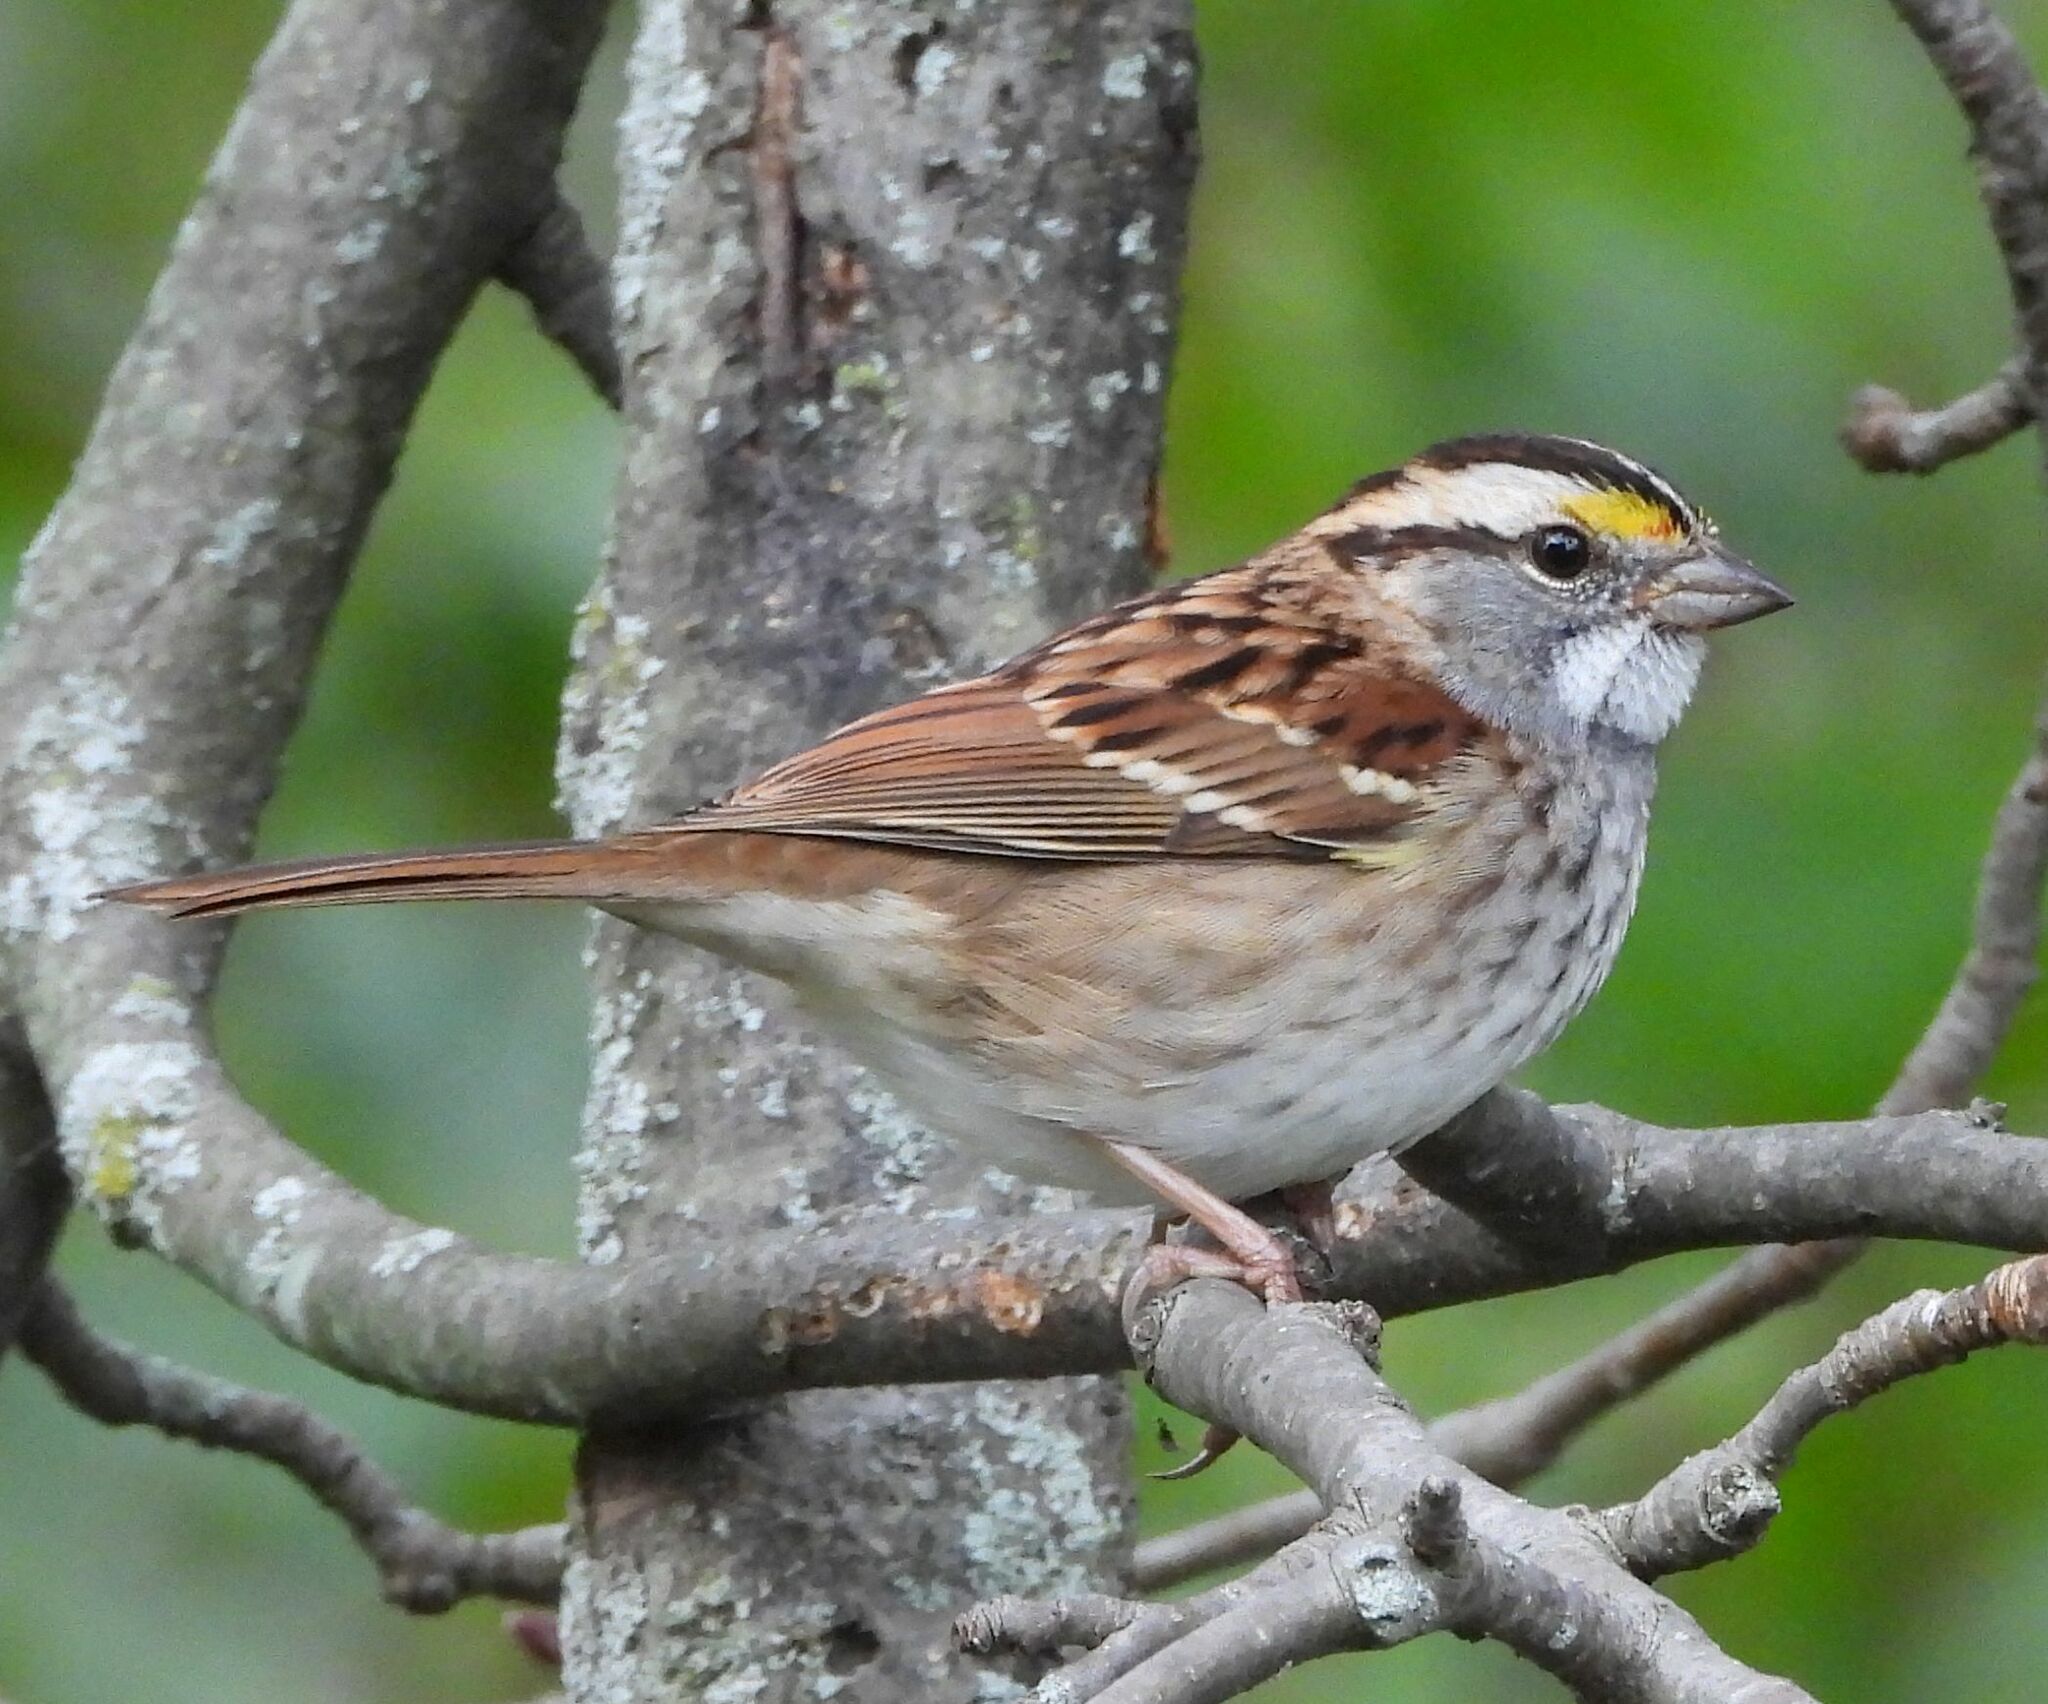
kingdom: Animalia
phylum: Chordata
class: Aves
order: Passeriformes
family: Passerellidae
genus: Zonotrichia
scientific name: Zonotrichia albicollis
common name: White-throated sparrow
